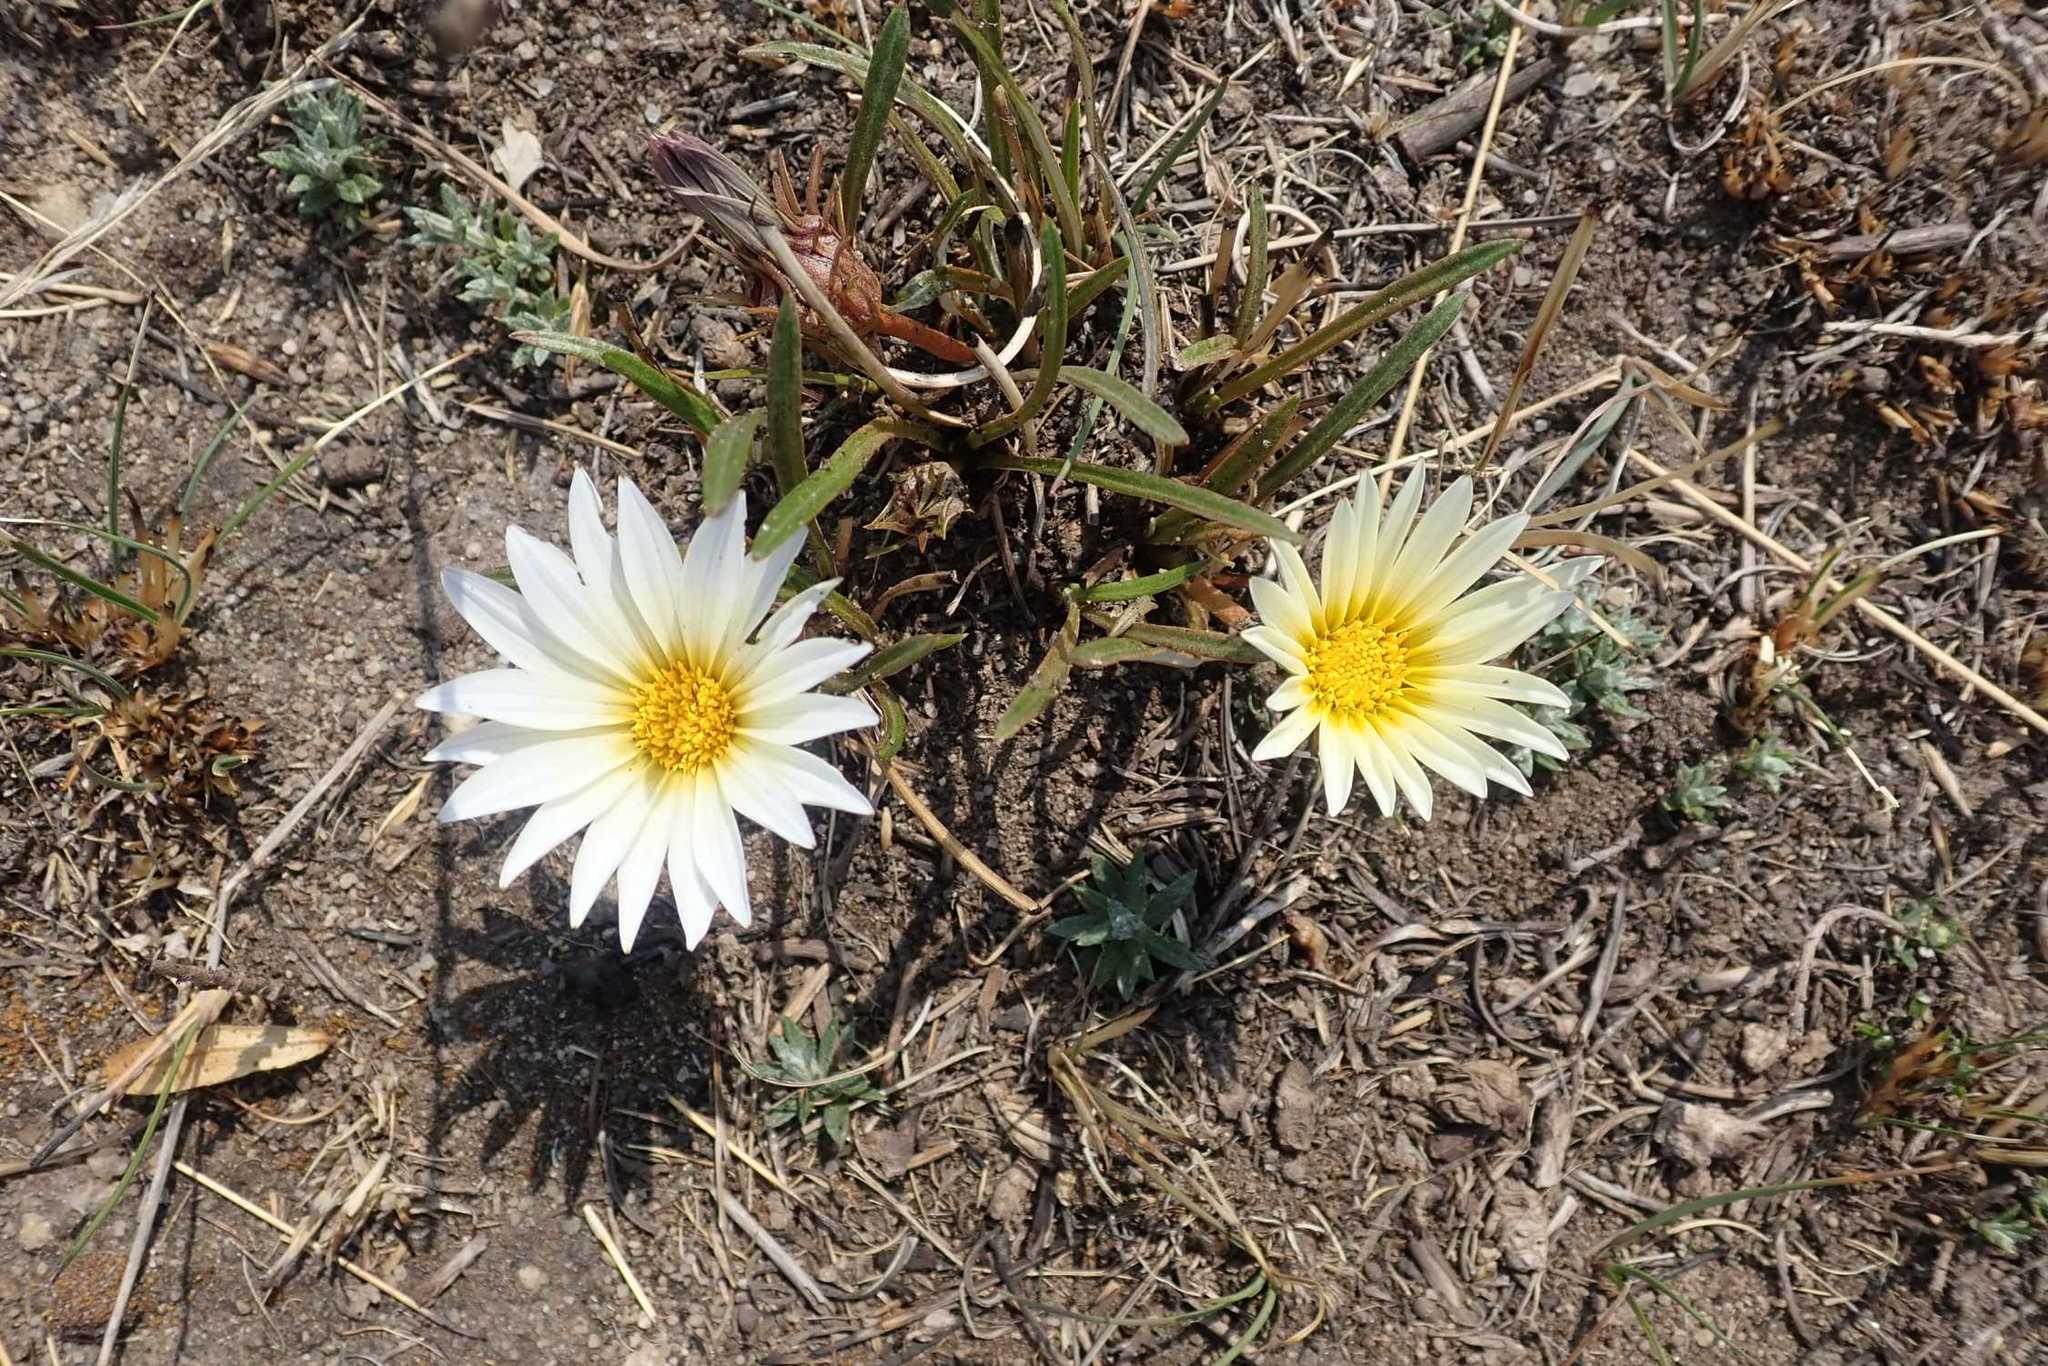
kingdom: Plantae
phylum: Tracheophyta
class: Magnoliopsida
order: Asterales
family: Asteraceae
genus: Gazania
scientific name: Gazania krebsiana
